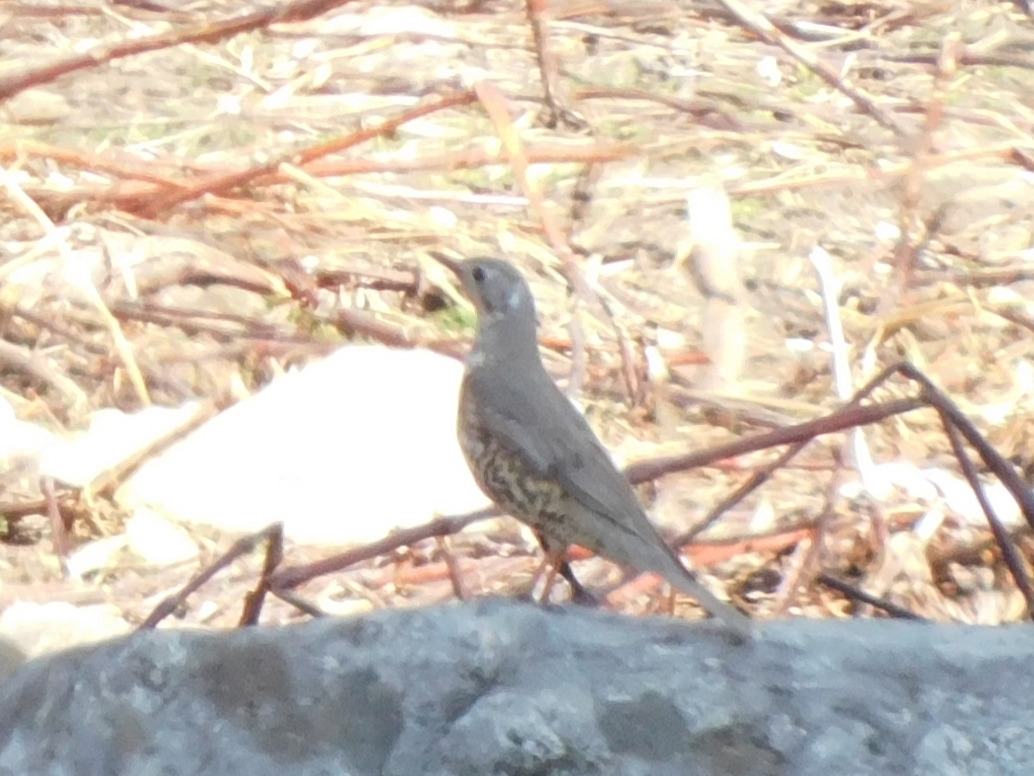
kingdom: Animalia
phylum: Chordata
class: Aves
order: Passeriformes
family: Turdidae
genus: Turdus
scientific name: Turdus viscivorus
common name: Mistle thrush
